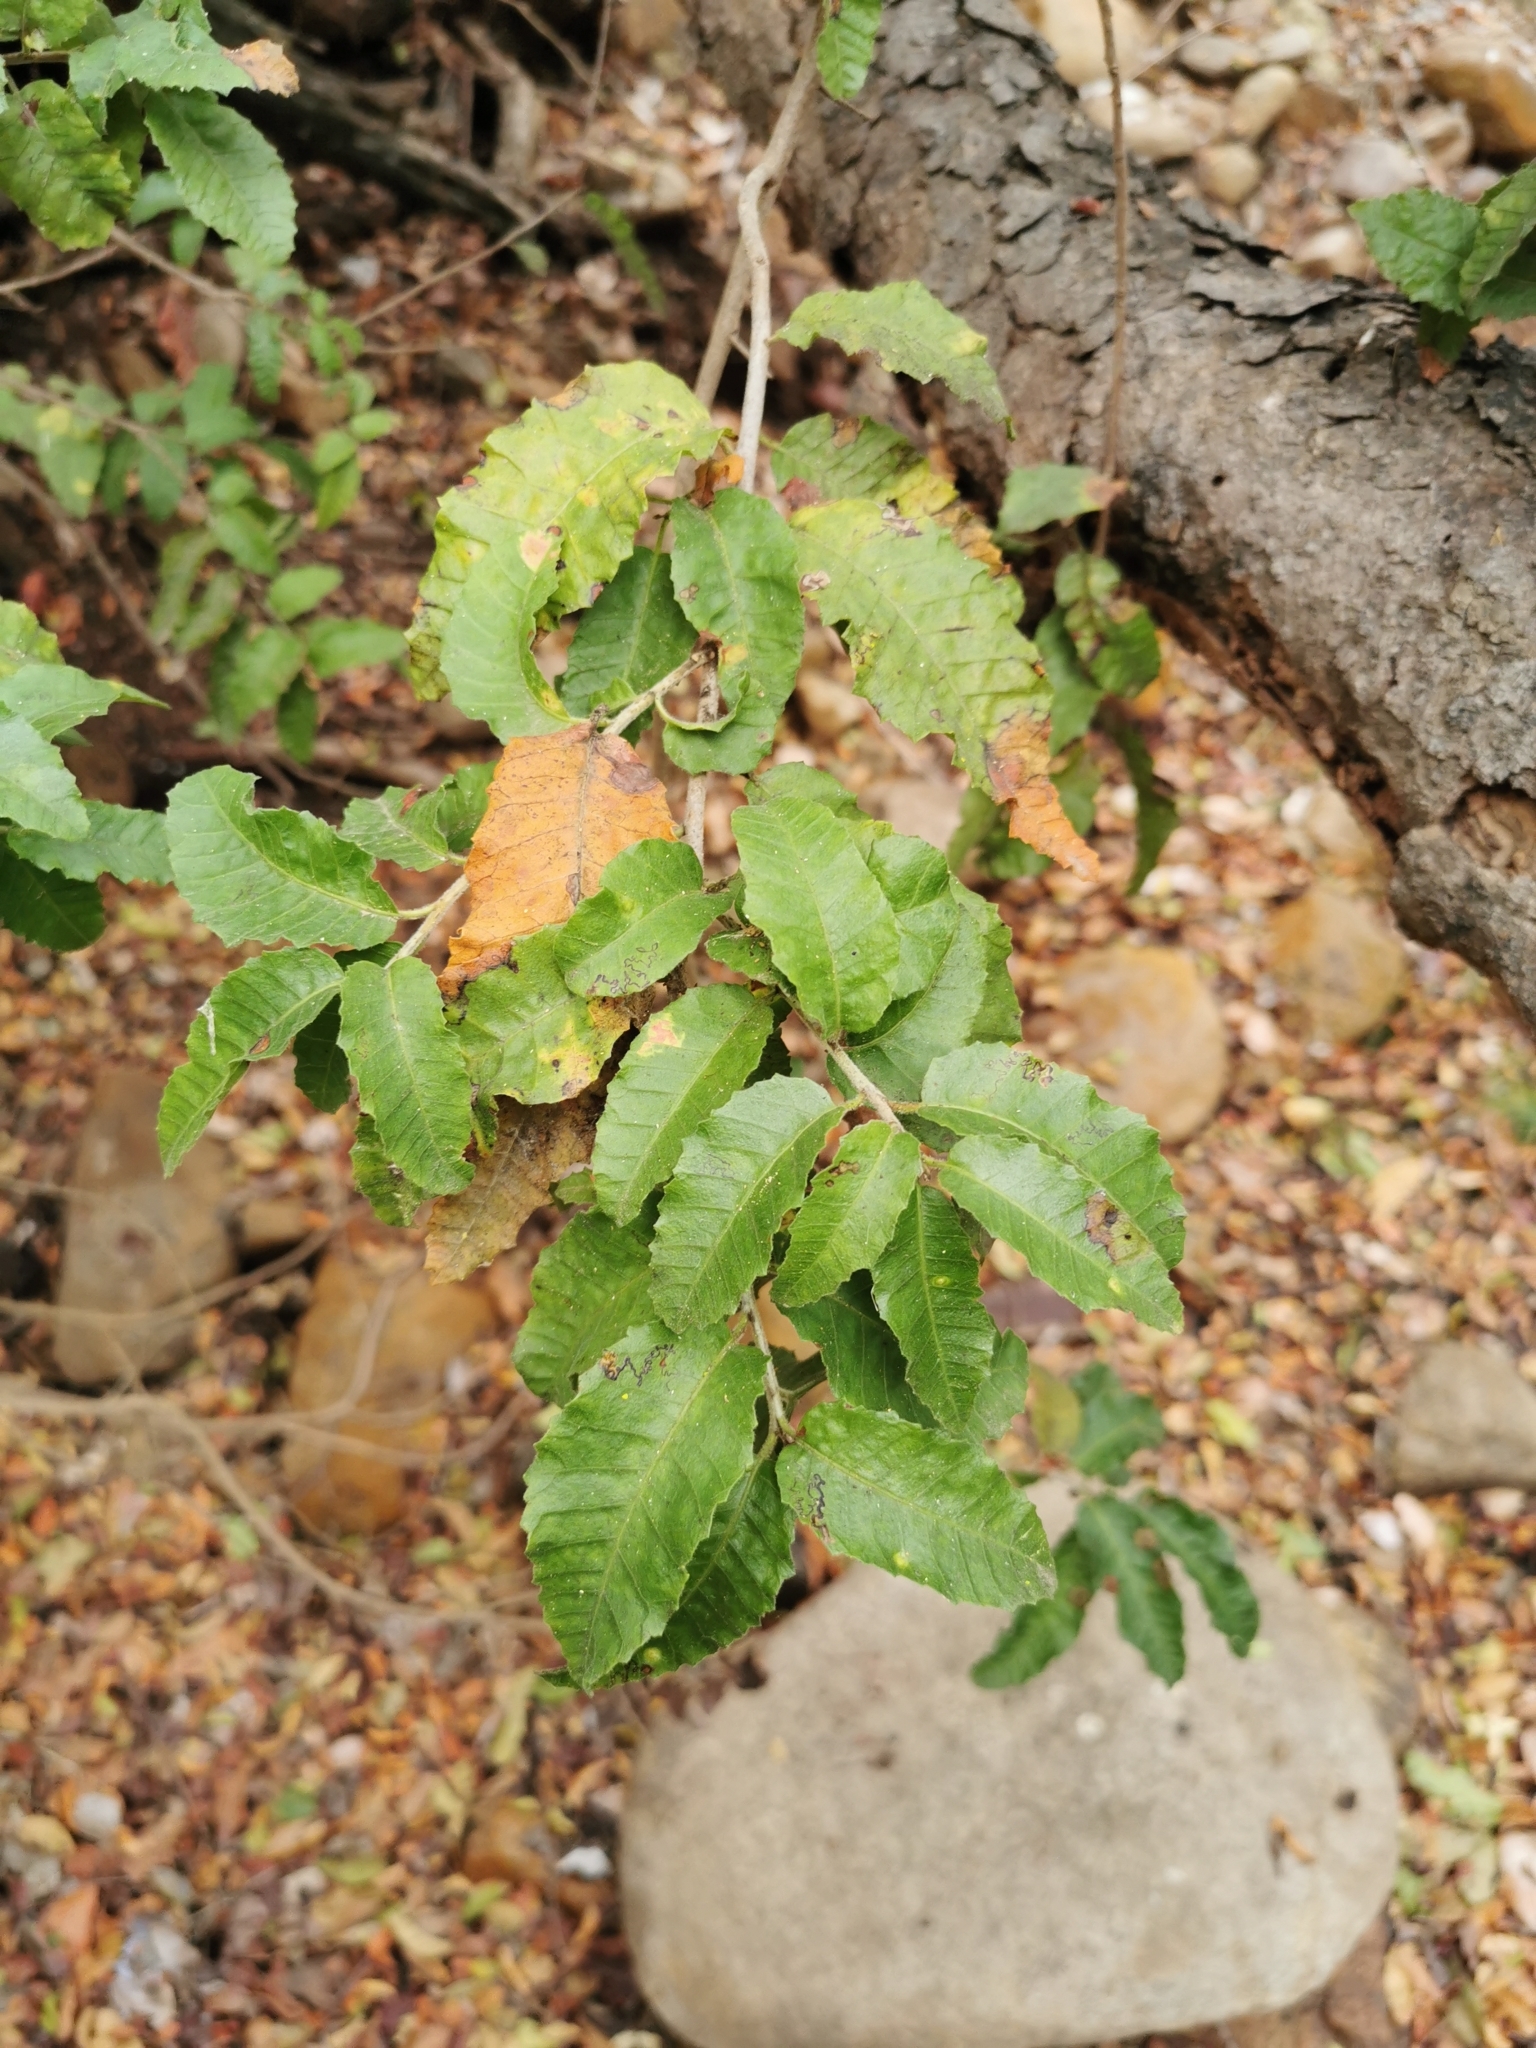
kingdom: Plantae
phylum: Tracheophyta
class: Magnoliopsida
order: Sapindales
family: Anacardiaceae
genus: Schinus
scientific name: Schinus latifolia
